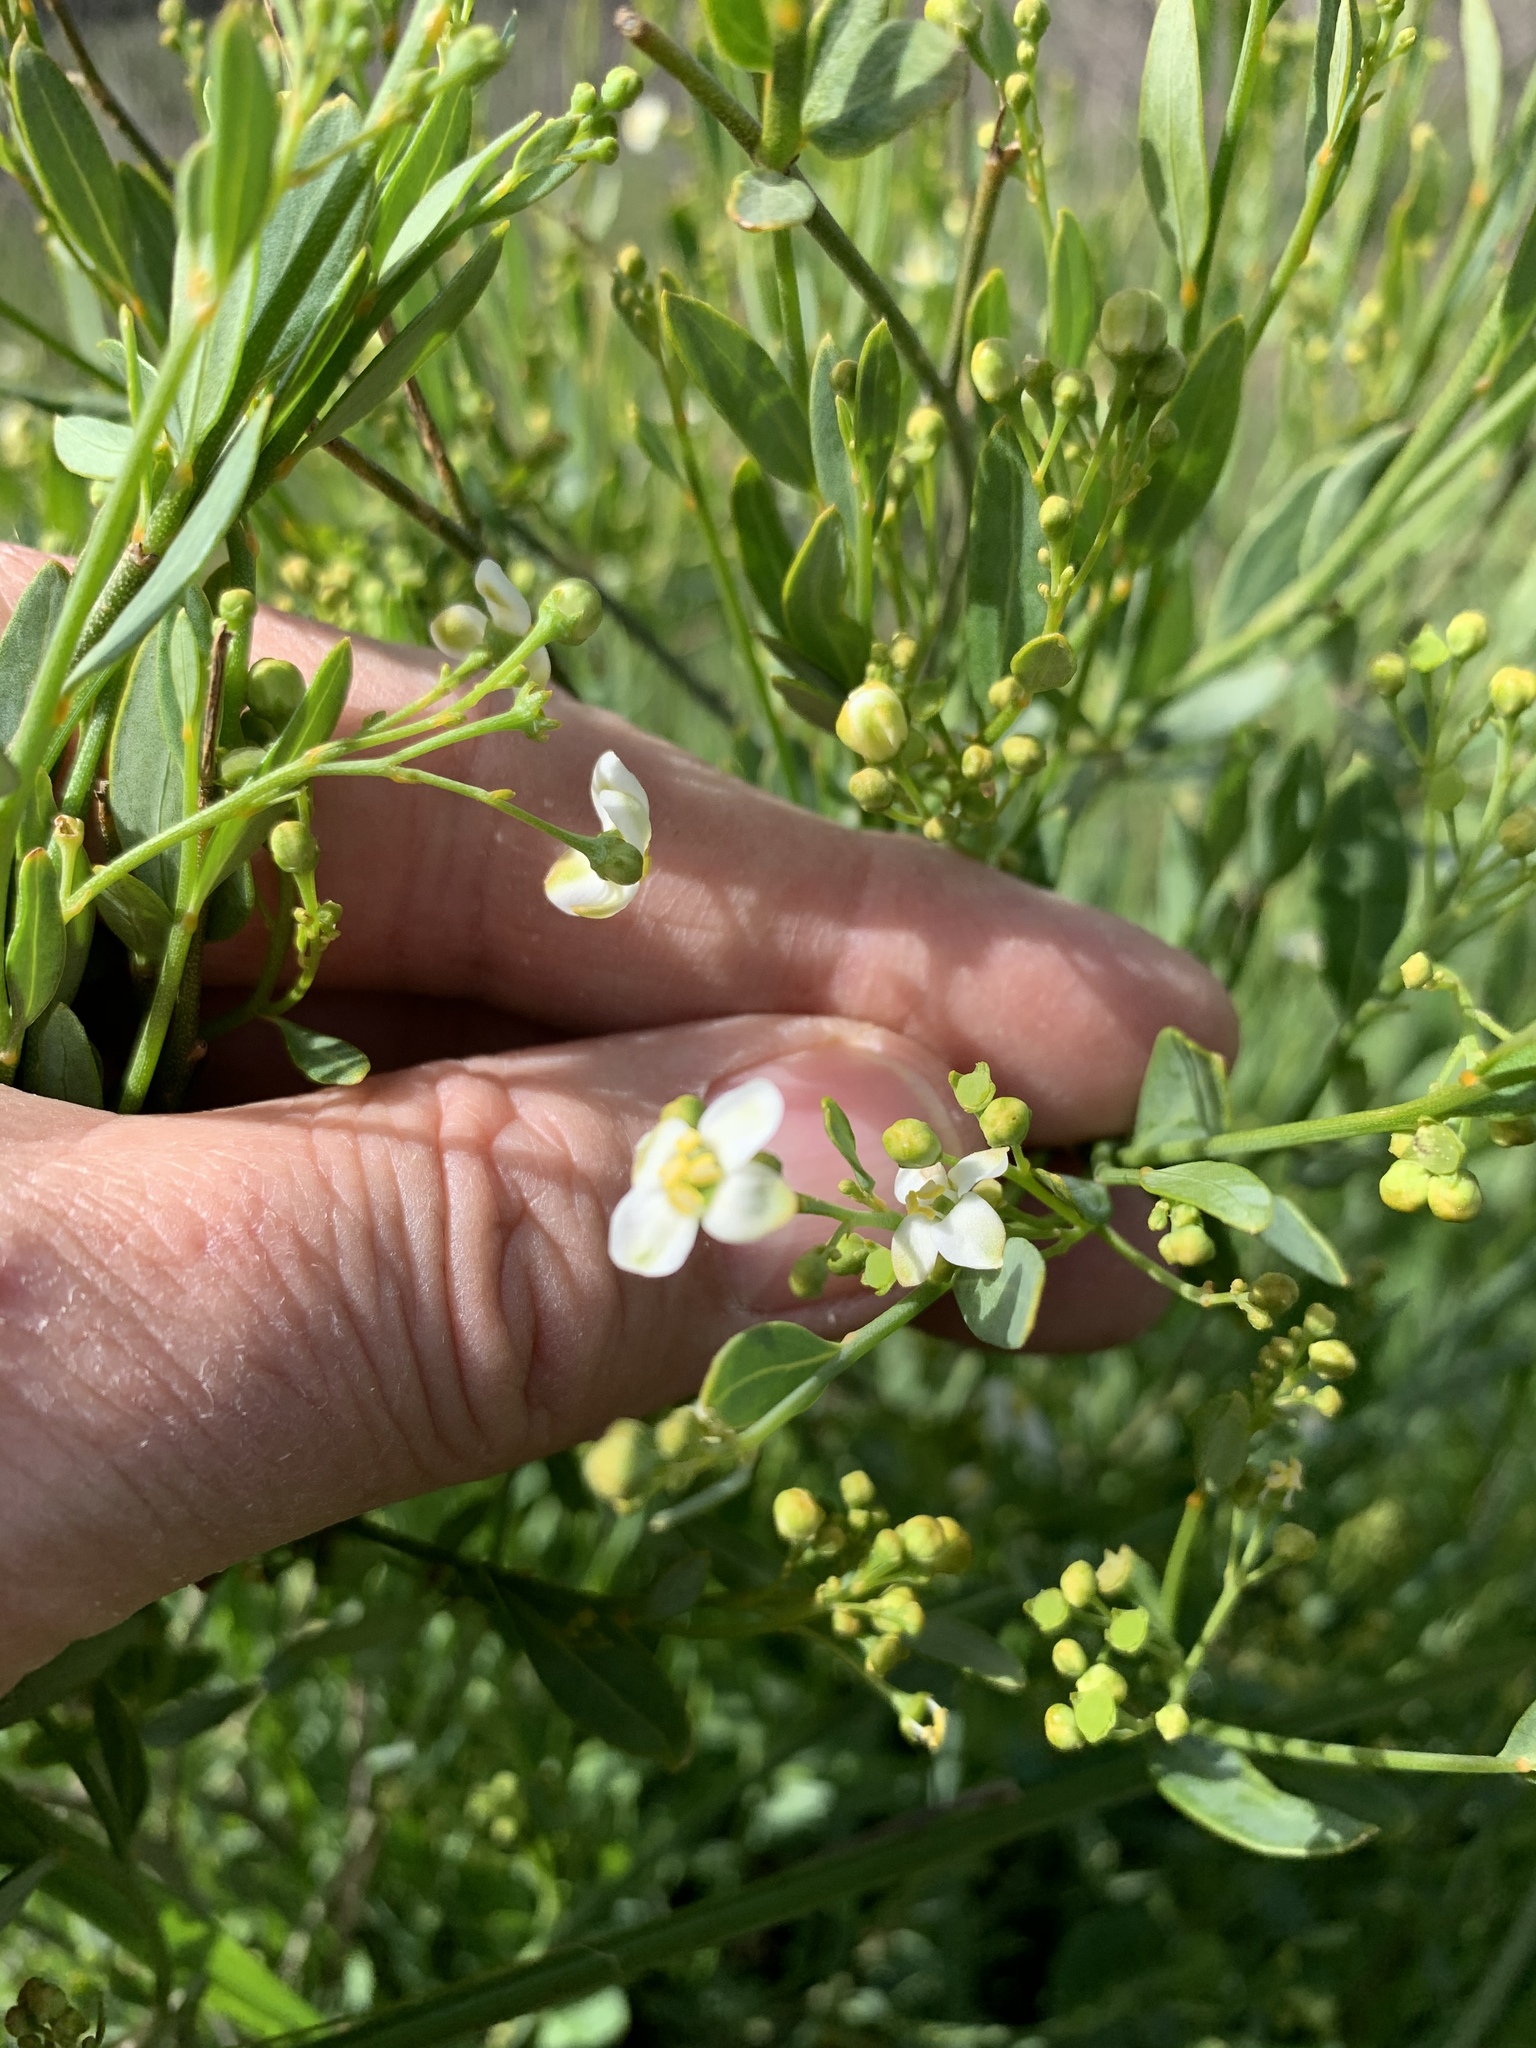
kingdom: Plantae
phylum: Tracheophyta
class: Magnoliopsida
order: Solanales
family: Montiniaceae
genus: Montinia
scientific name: Montinia caryophyllacea
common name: Wild clove-bush
